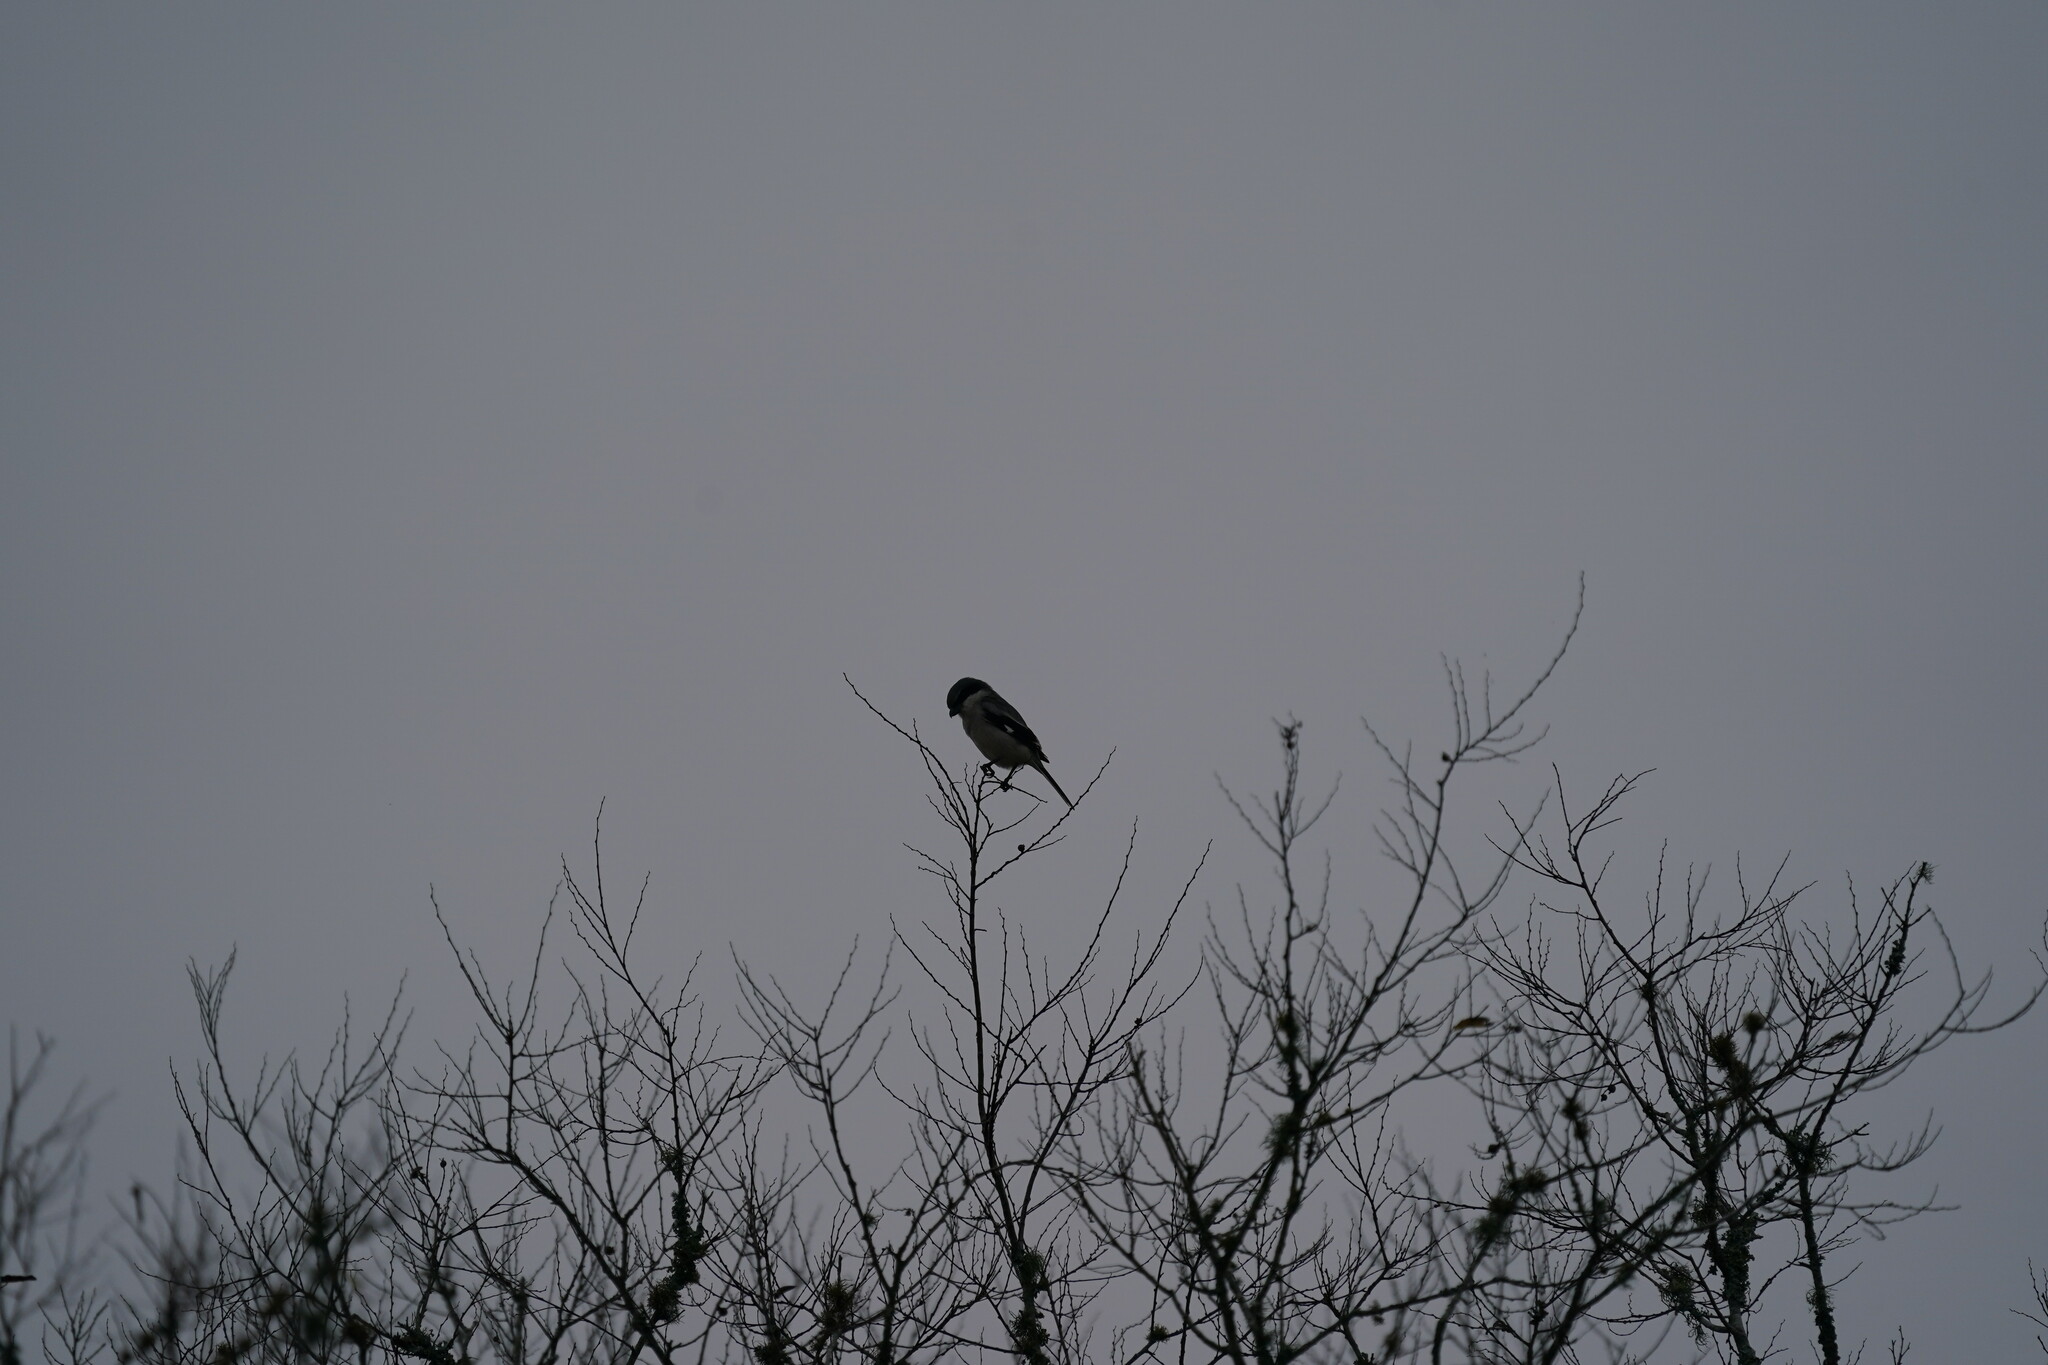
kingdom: Animalia
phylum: Chordata
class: Aves
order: Passeriformes
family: Laniidae
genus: Lanius
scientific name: Lanius ludovicianus
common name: Loggerhead shrike
